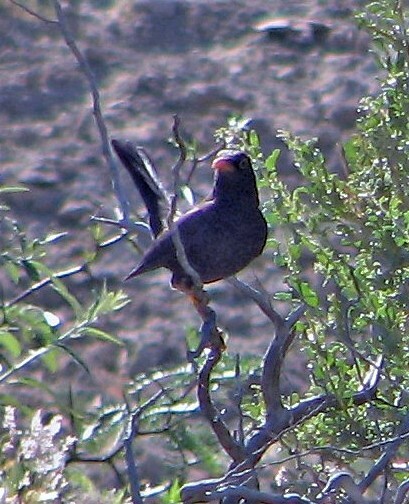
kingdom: Animalia
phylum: Chordata
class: Aves
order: Passeriformes
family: Turdidae
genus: Turdus
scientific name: Turdus chiguanco
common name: Chiguanco thrush
